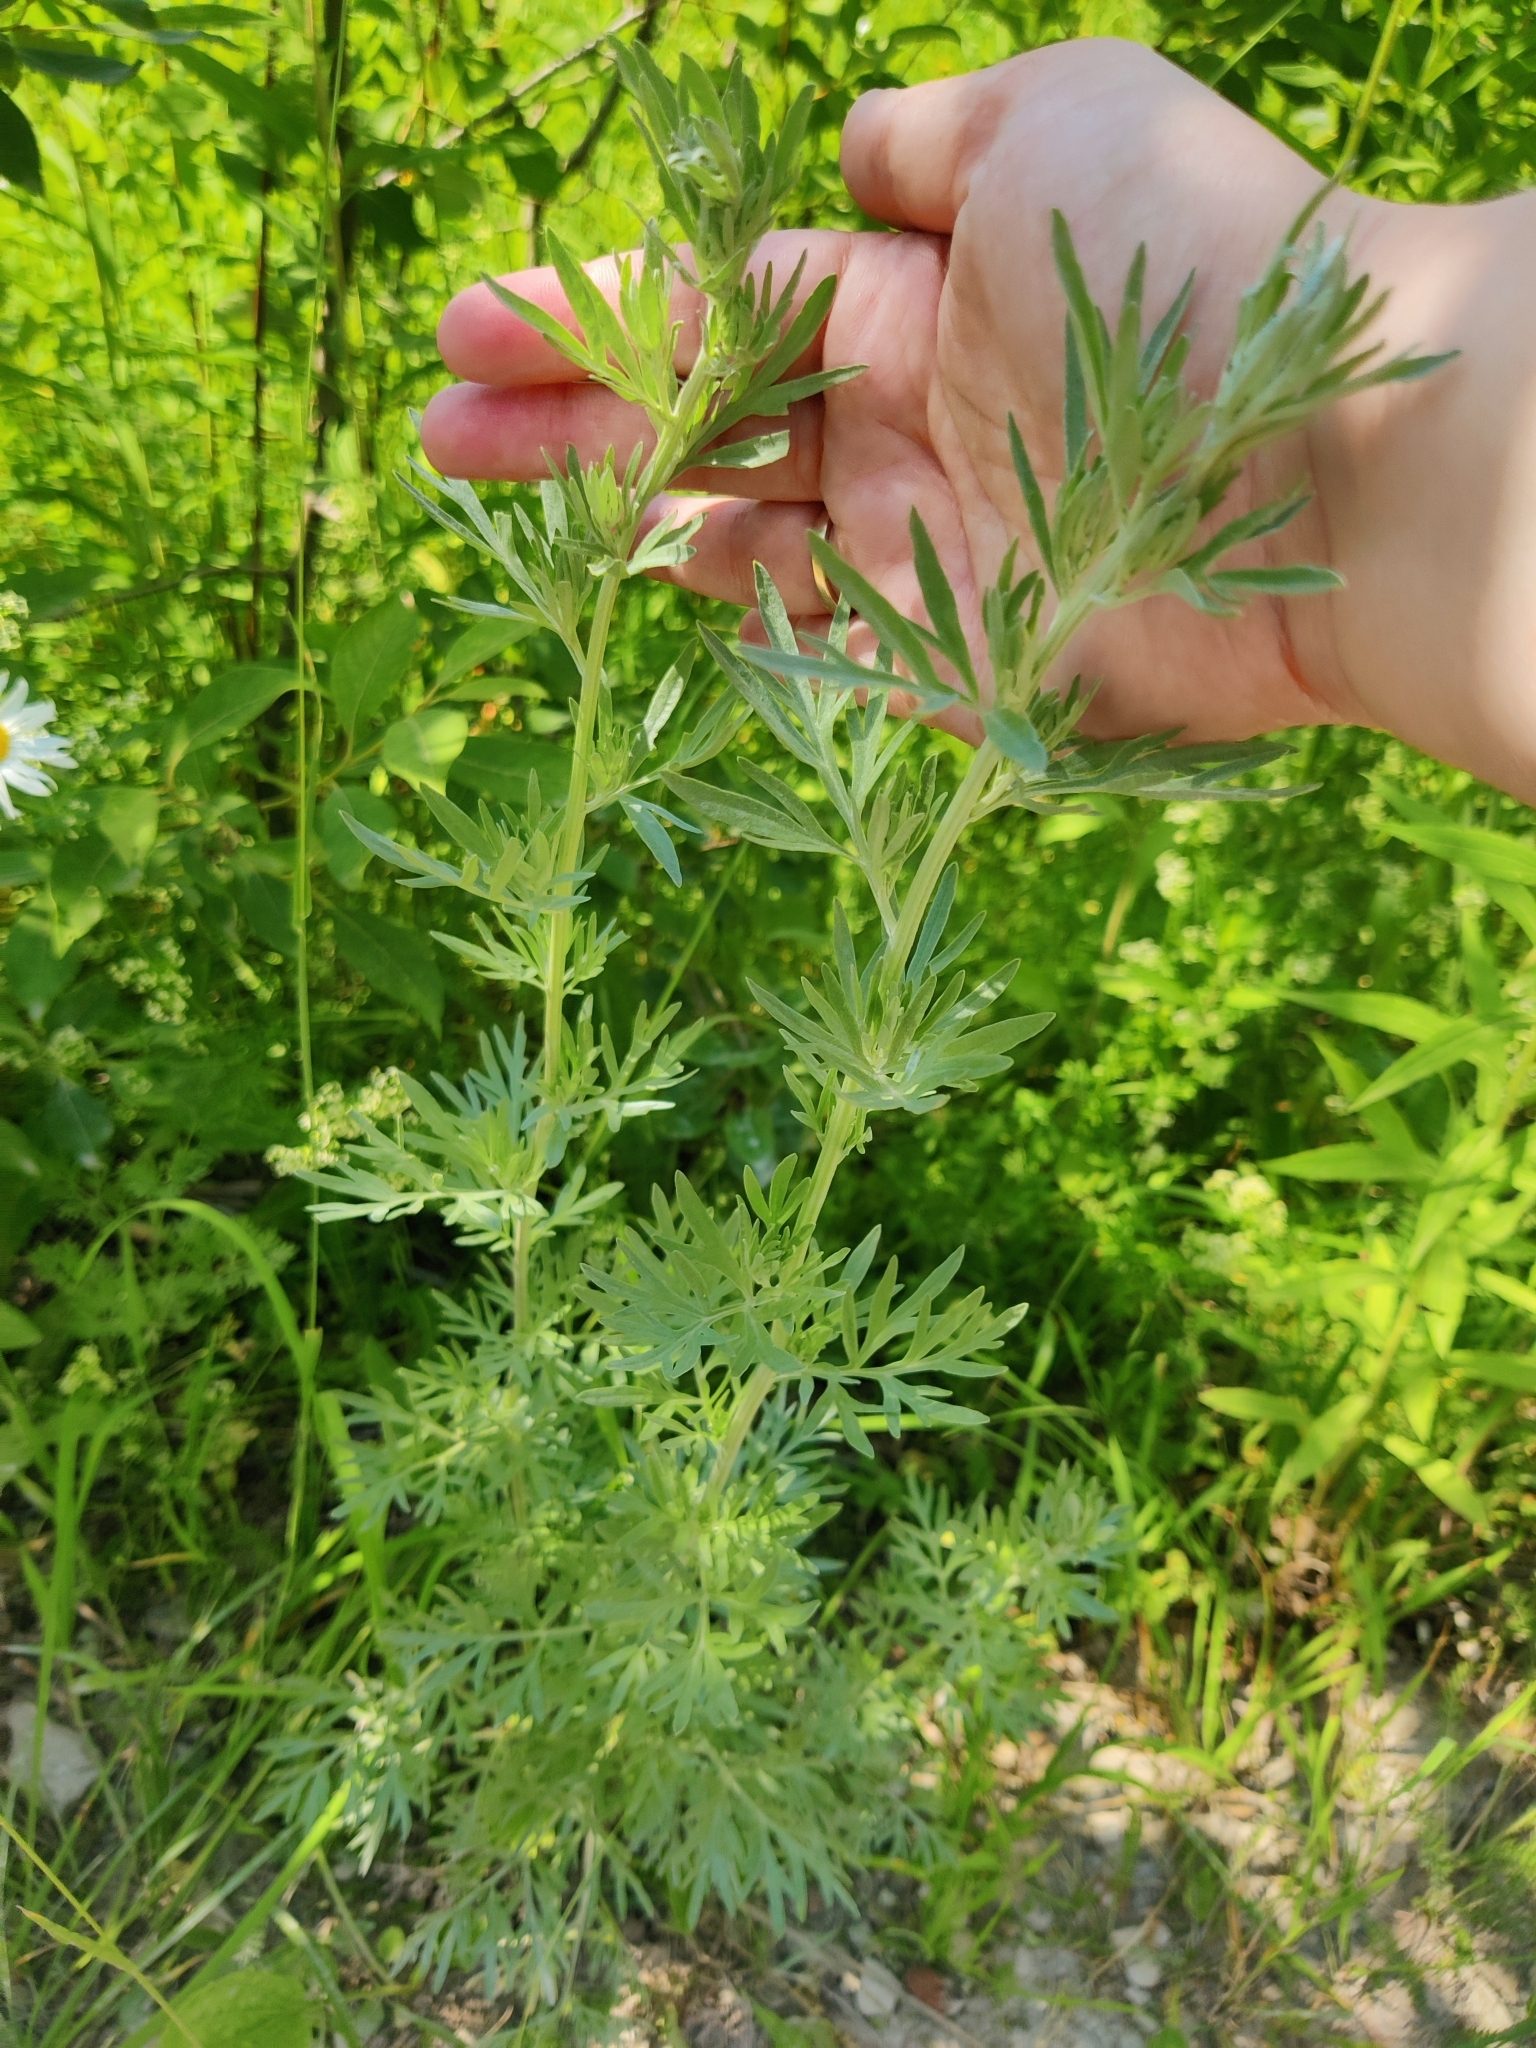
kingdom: Plantae
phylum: Tracheophyta
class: Magnoliopsida
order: Asterales
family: Asteraceae
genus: Artemisia
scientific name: Artemisia absinthium
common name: Wormwood
